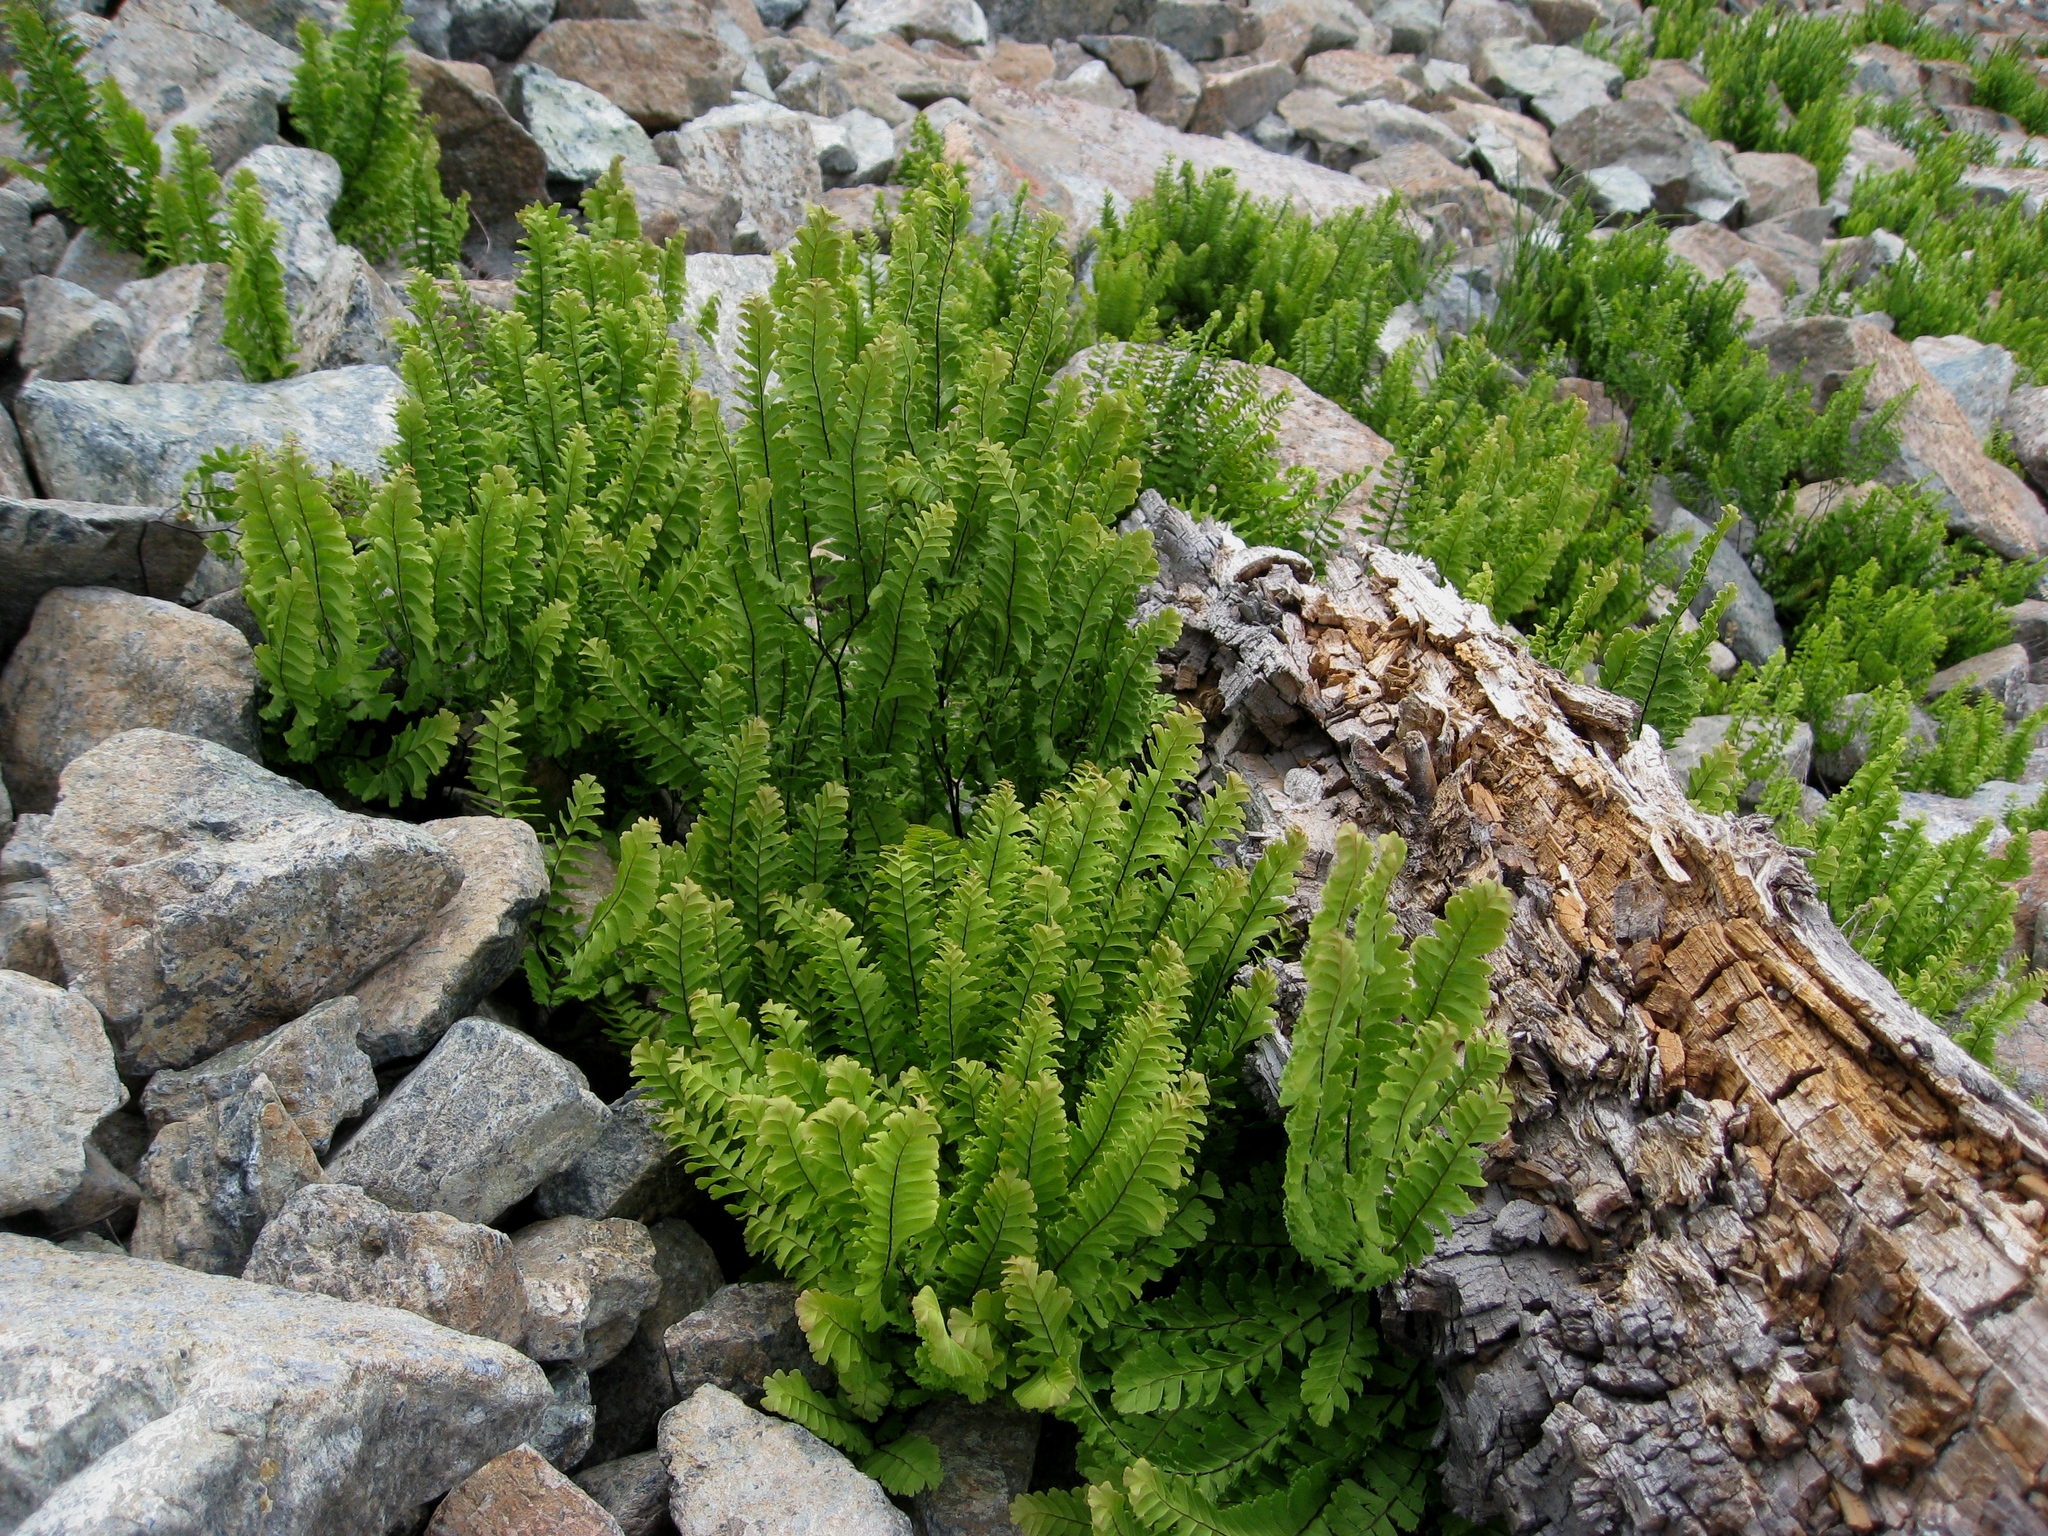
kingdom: Plantae
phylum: Tracheophyta
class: Polypodiopsida
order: Polypodiales
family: Pteridaceae
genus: Adiantum
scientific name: Adiantum aleuticum
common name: Aleutian maidenhair fern
